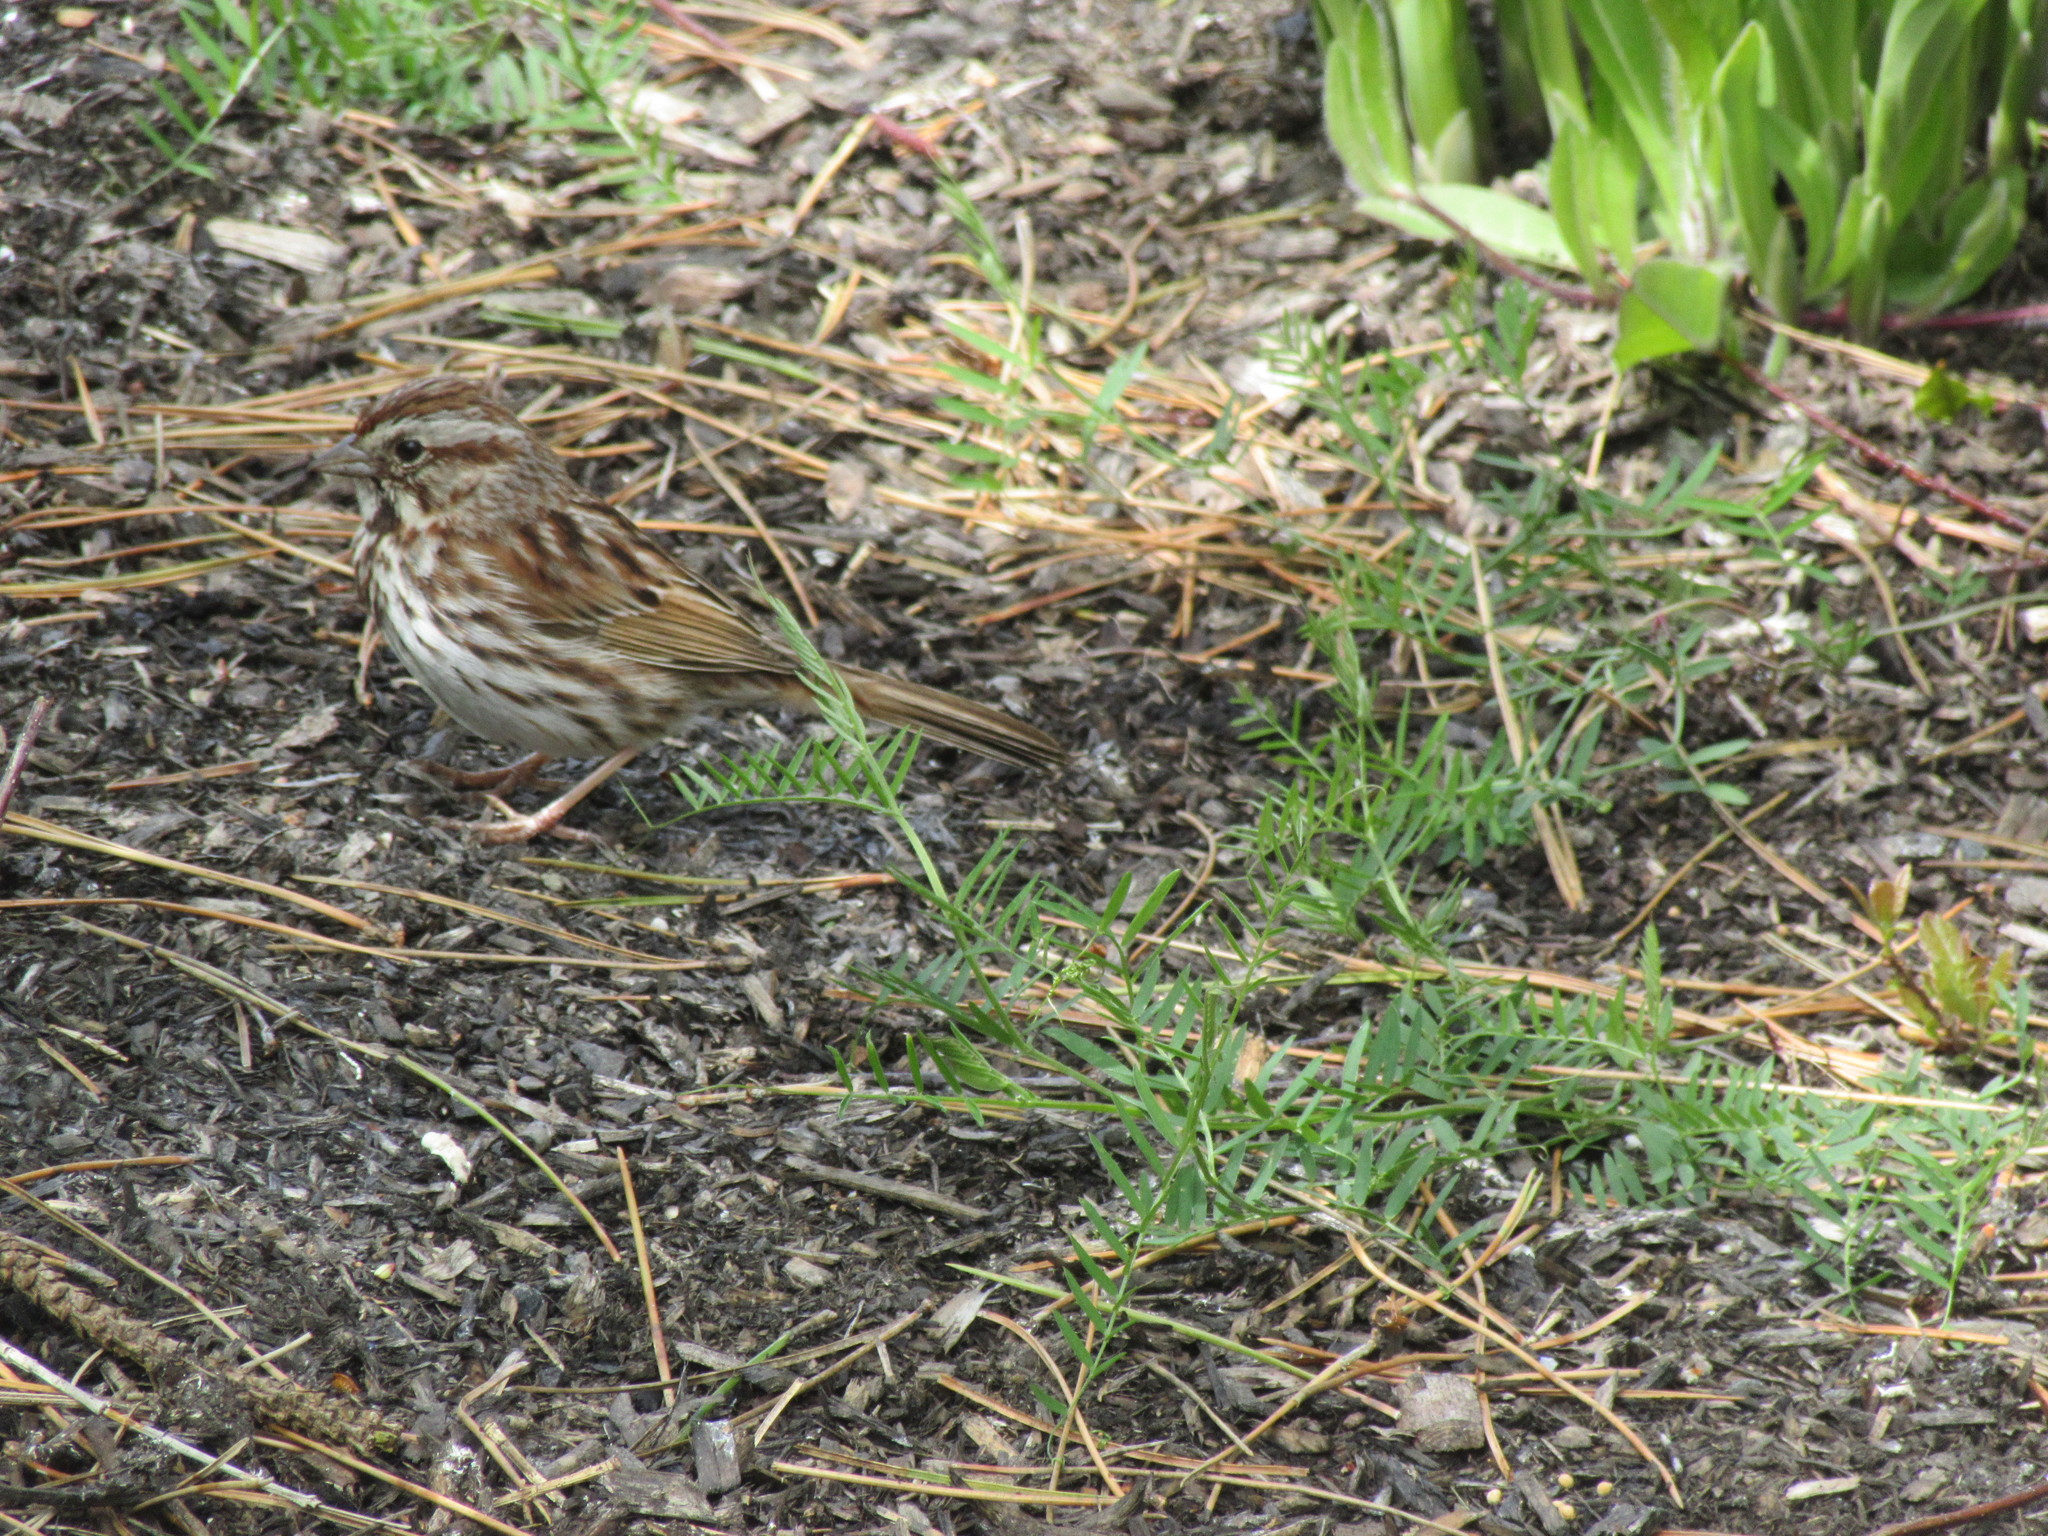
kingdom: Animalia
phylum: Chordata
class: Aves
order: Passeriformes
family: Passerellidae
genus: Melospiza
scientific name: Melospiza melodia
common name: Song sparrow
